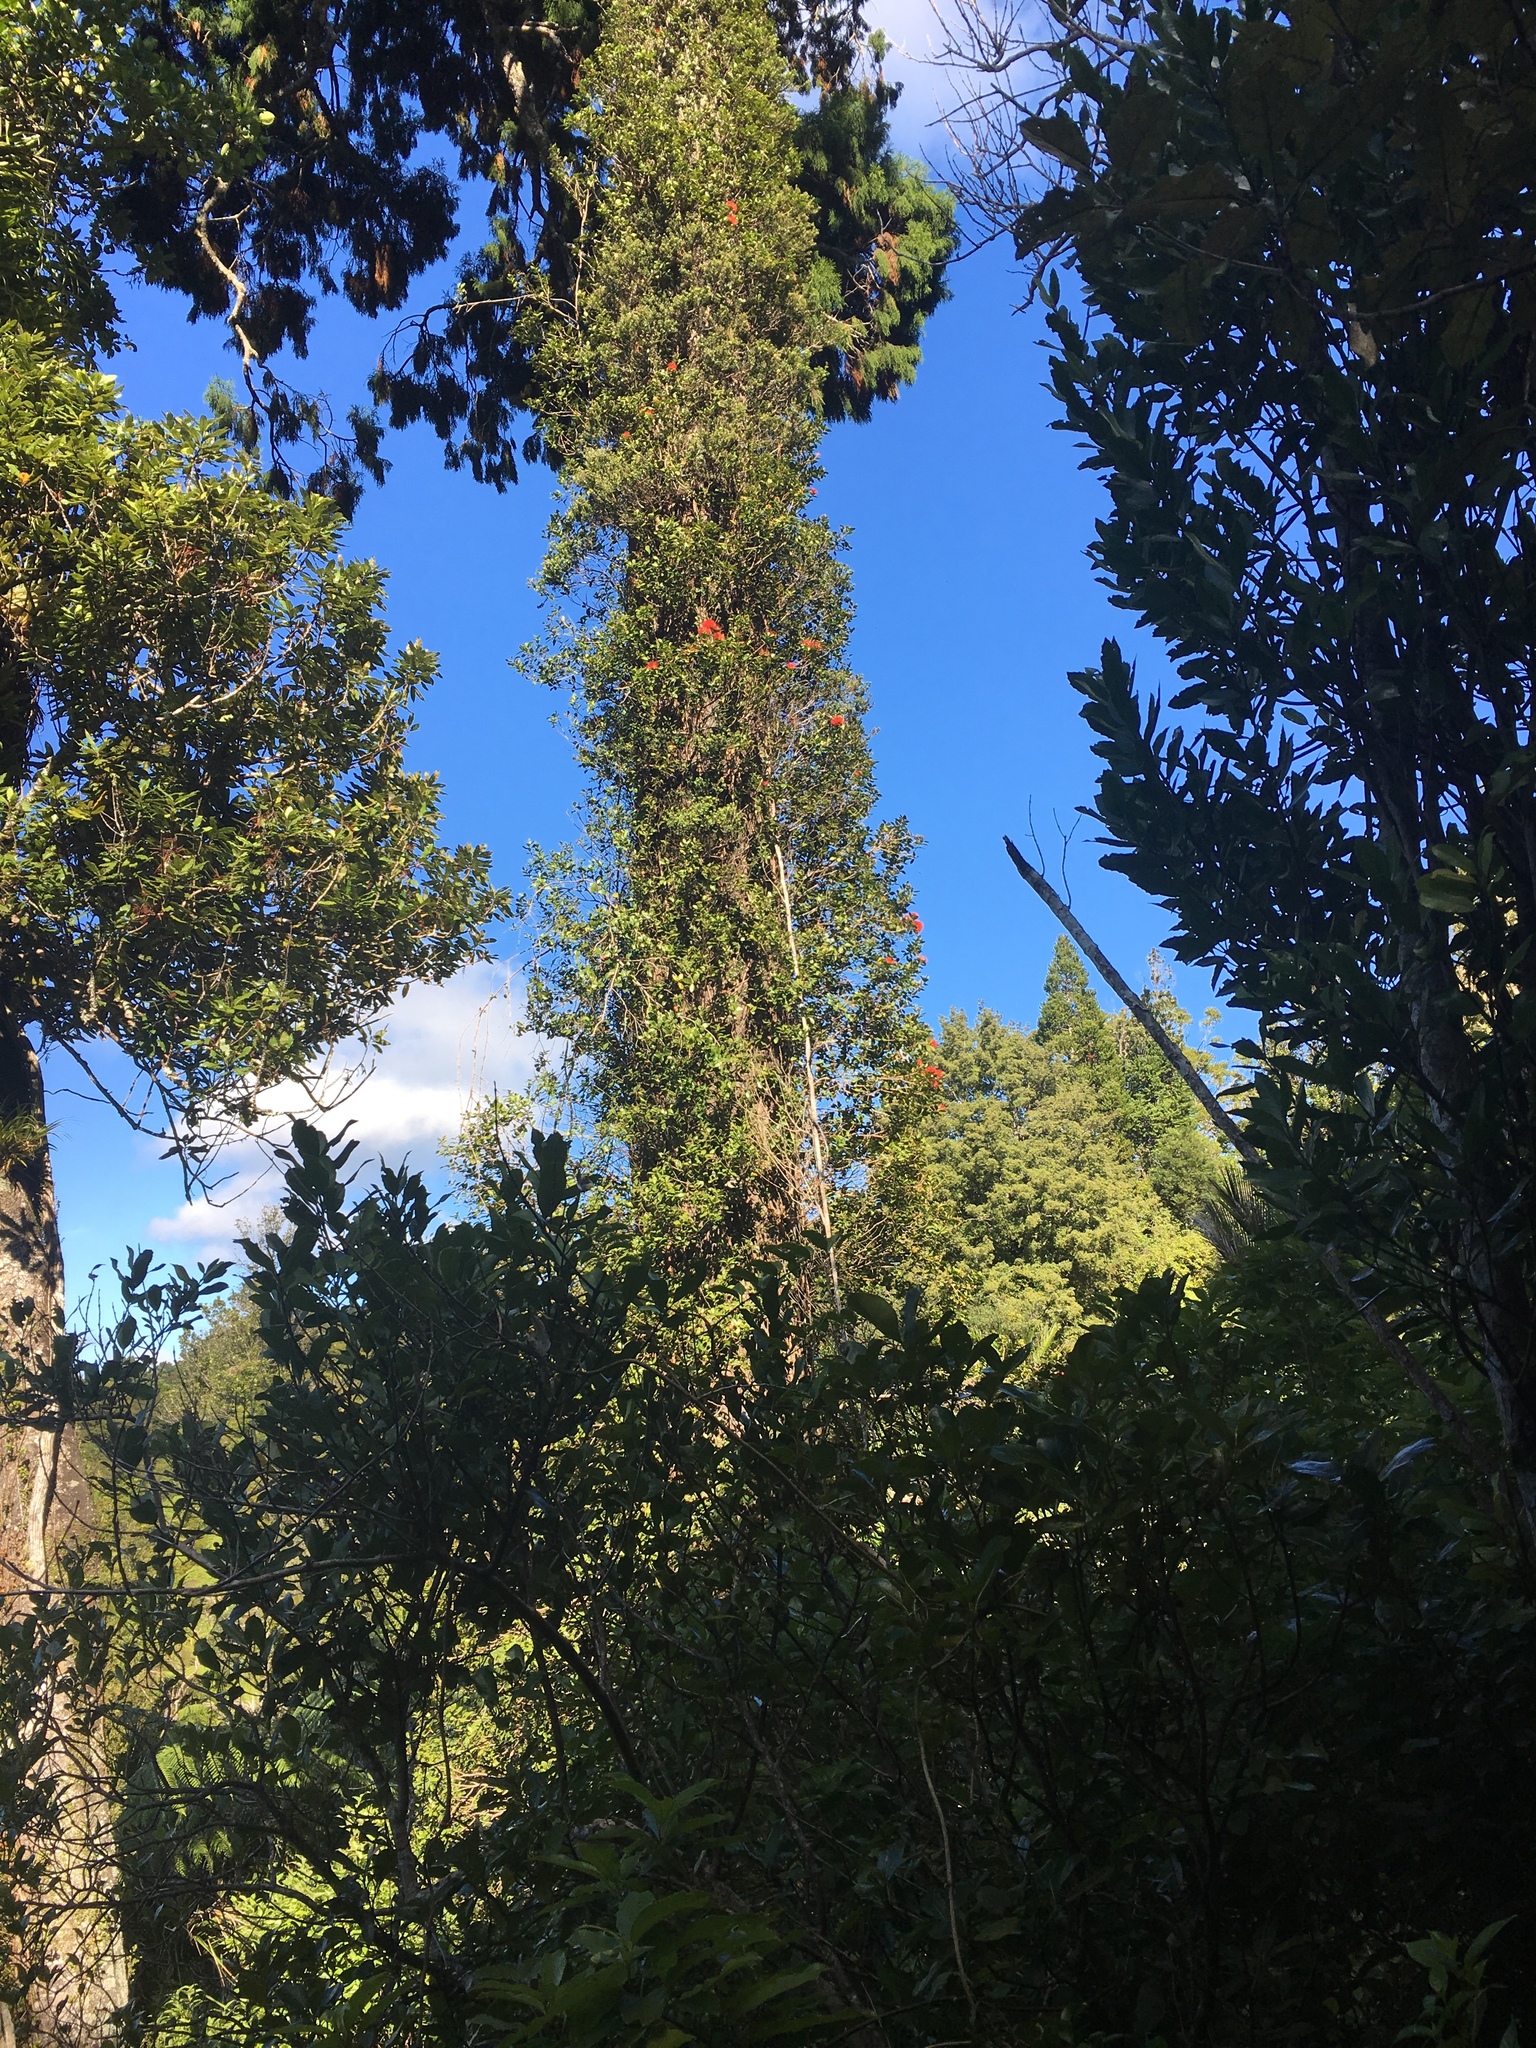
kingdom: Plantae
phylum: Tracheophyta
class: Magnoliopsida
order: Myrtales
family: Myrtaceae
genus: Metrosideros
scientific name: Metrosideros fulgens
